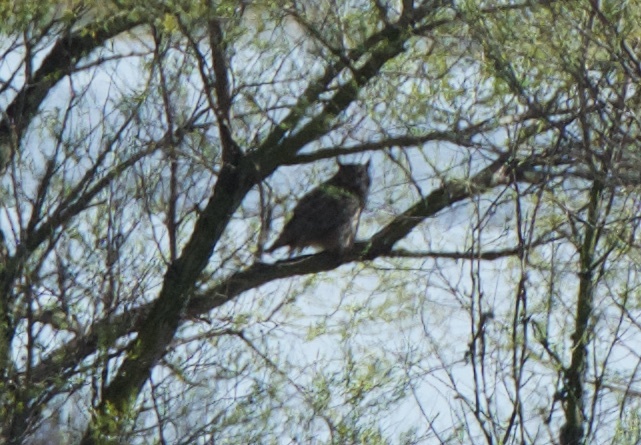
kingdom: Animalia
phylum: Chordata
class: Aves
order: Strigiformes
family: Strigidae
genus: Bubo
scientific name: Bubo virginianus
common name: Great horned owl
